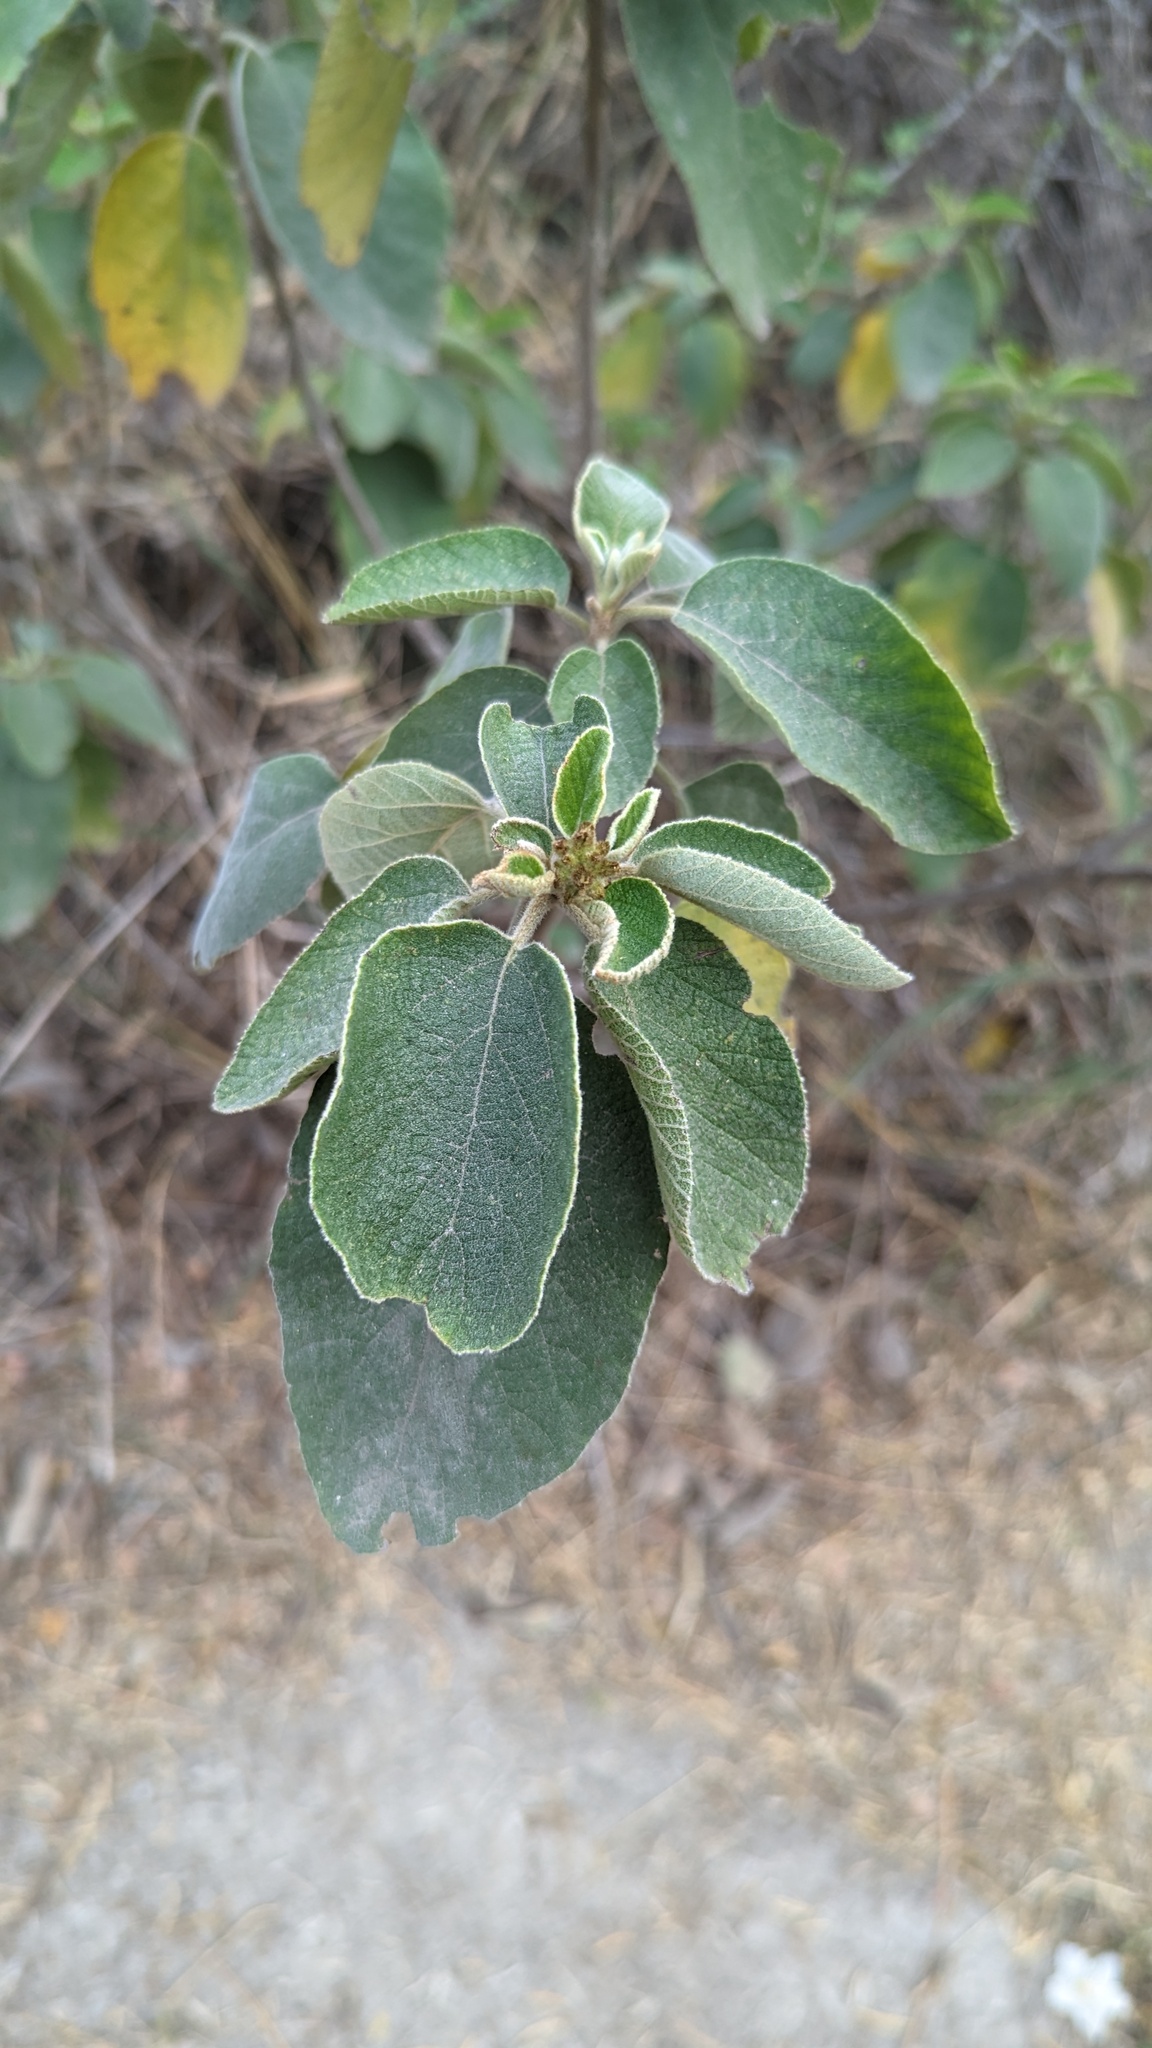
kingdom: Plantae
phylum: Tracheophyta
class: Magnoliopsida
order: Boraginales
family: Cordiaceae
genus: Cordia
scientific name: Cordia boissieri
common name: Mexican-olive
